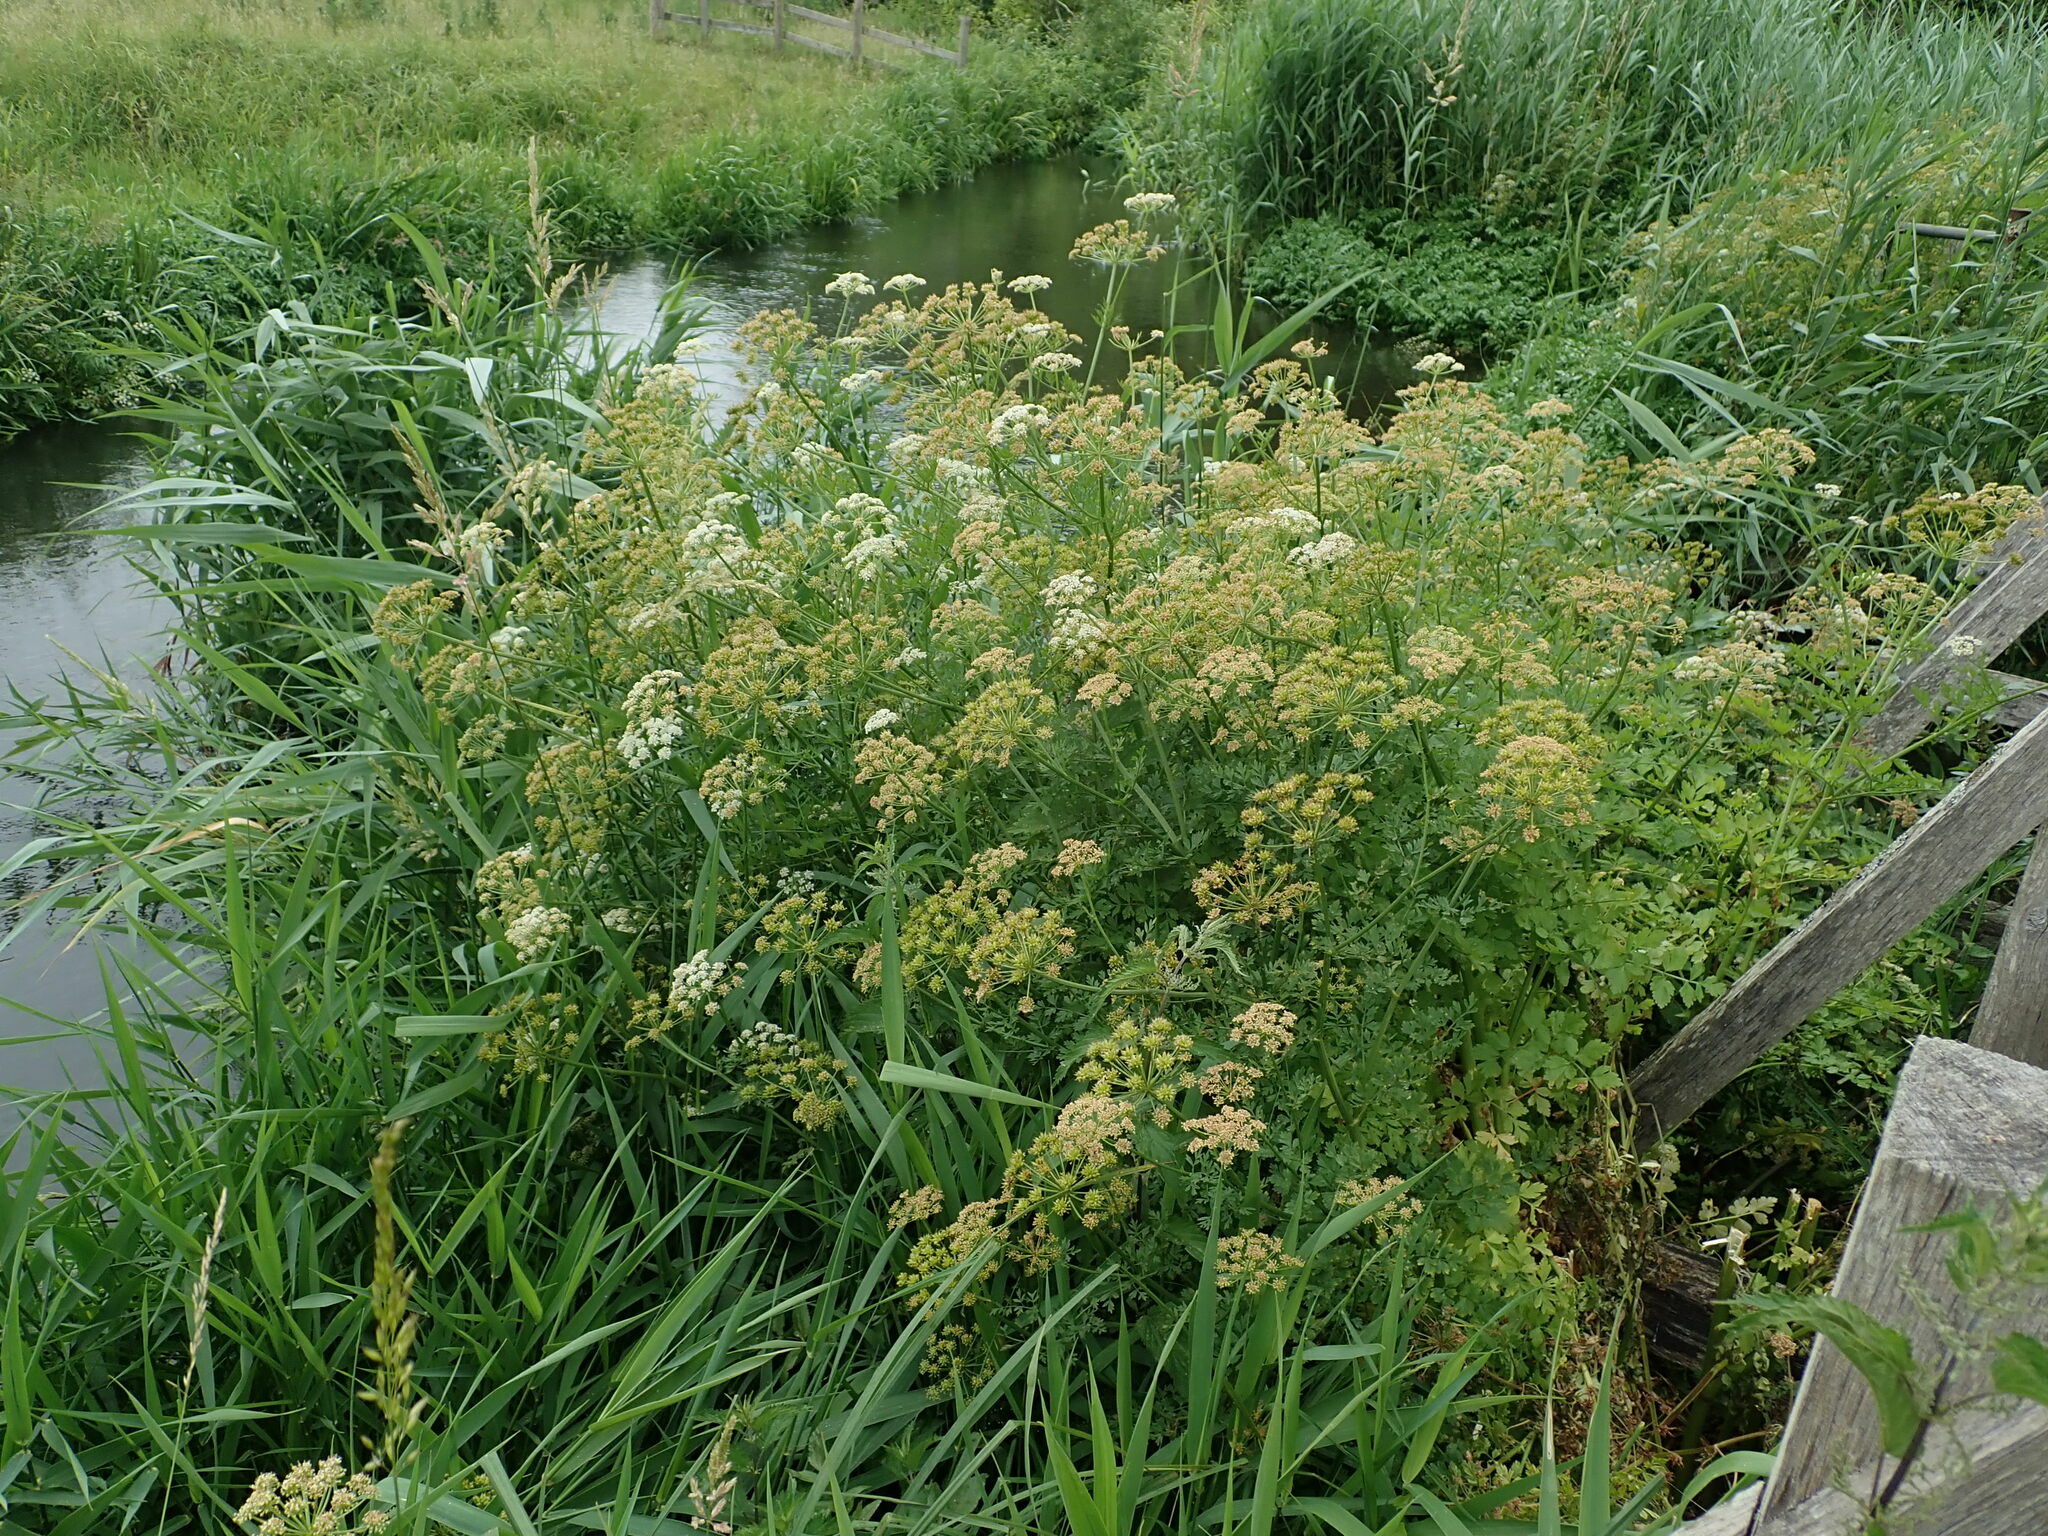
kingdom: Plantae
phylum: Tracheophyta
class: Magnoliopsida
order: Apiales
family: Apiaceae
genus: Oenanthe
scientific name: Oenanthe crocata
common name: Hemlock water-dropwort
